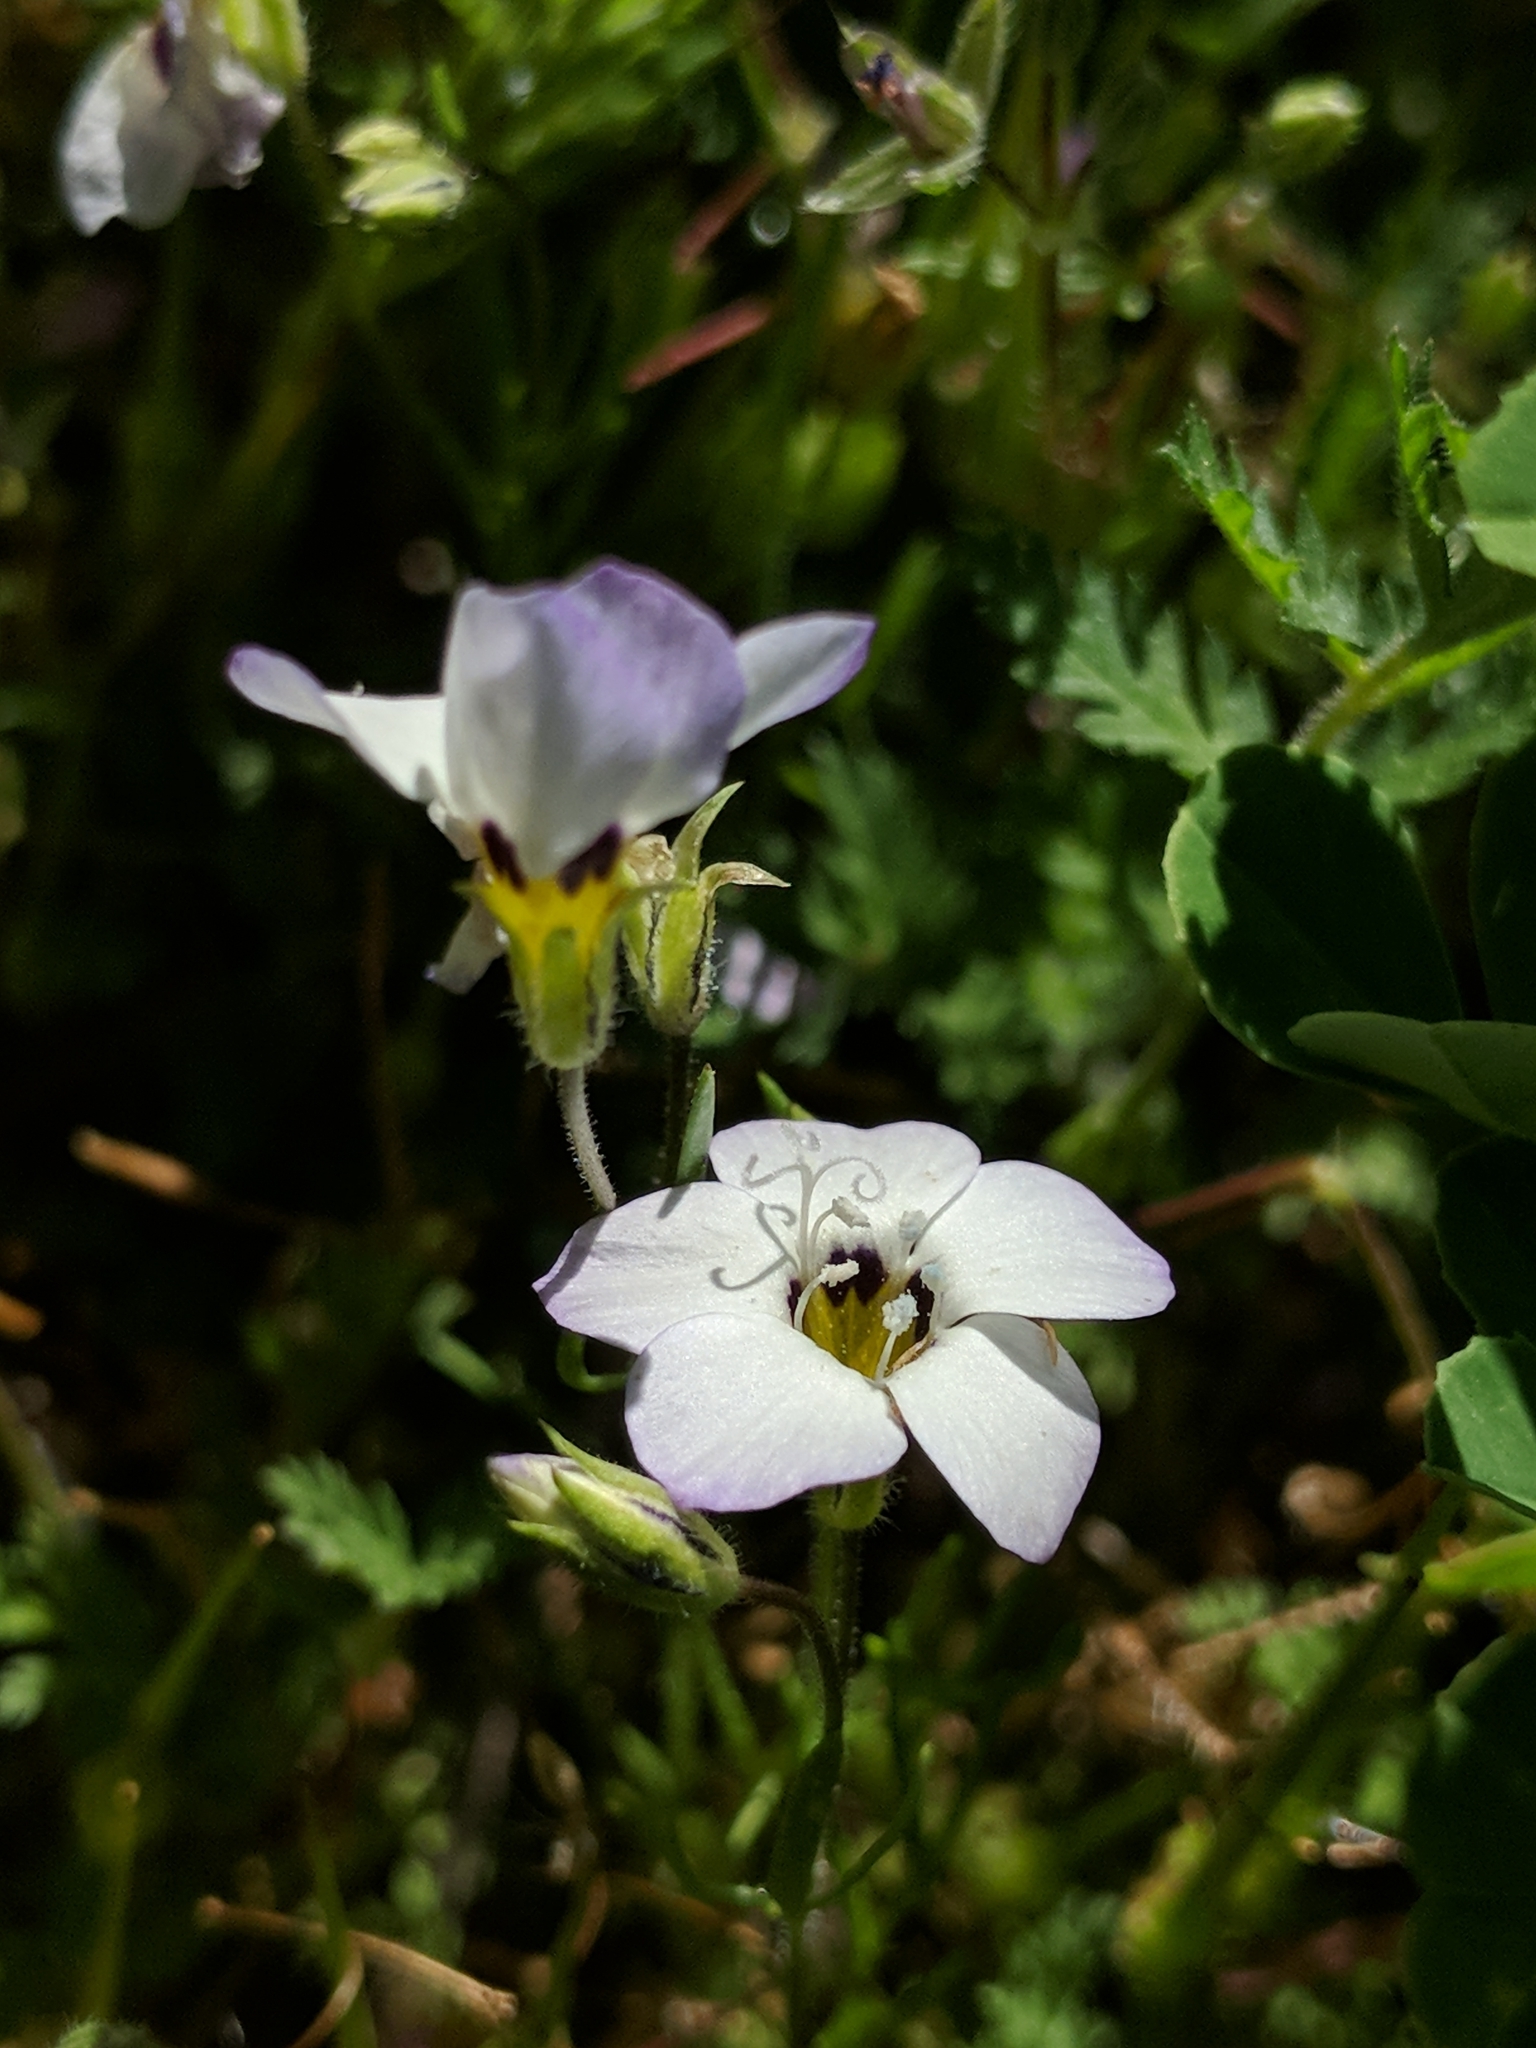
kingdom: Plantae
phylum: Tracheophyta
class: Magnoliopsida
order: Ericales
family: Polemoniaceae
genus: Gilia
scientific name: Gilia tricolor
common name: Bird's-eyes
